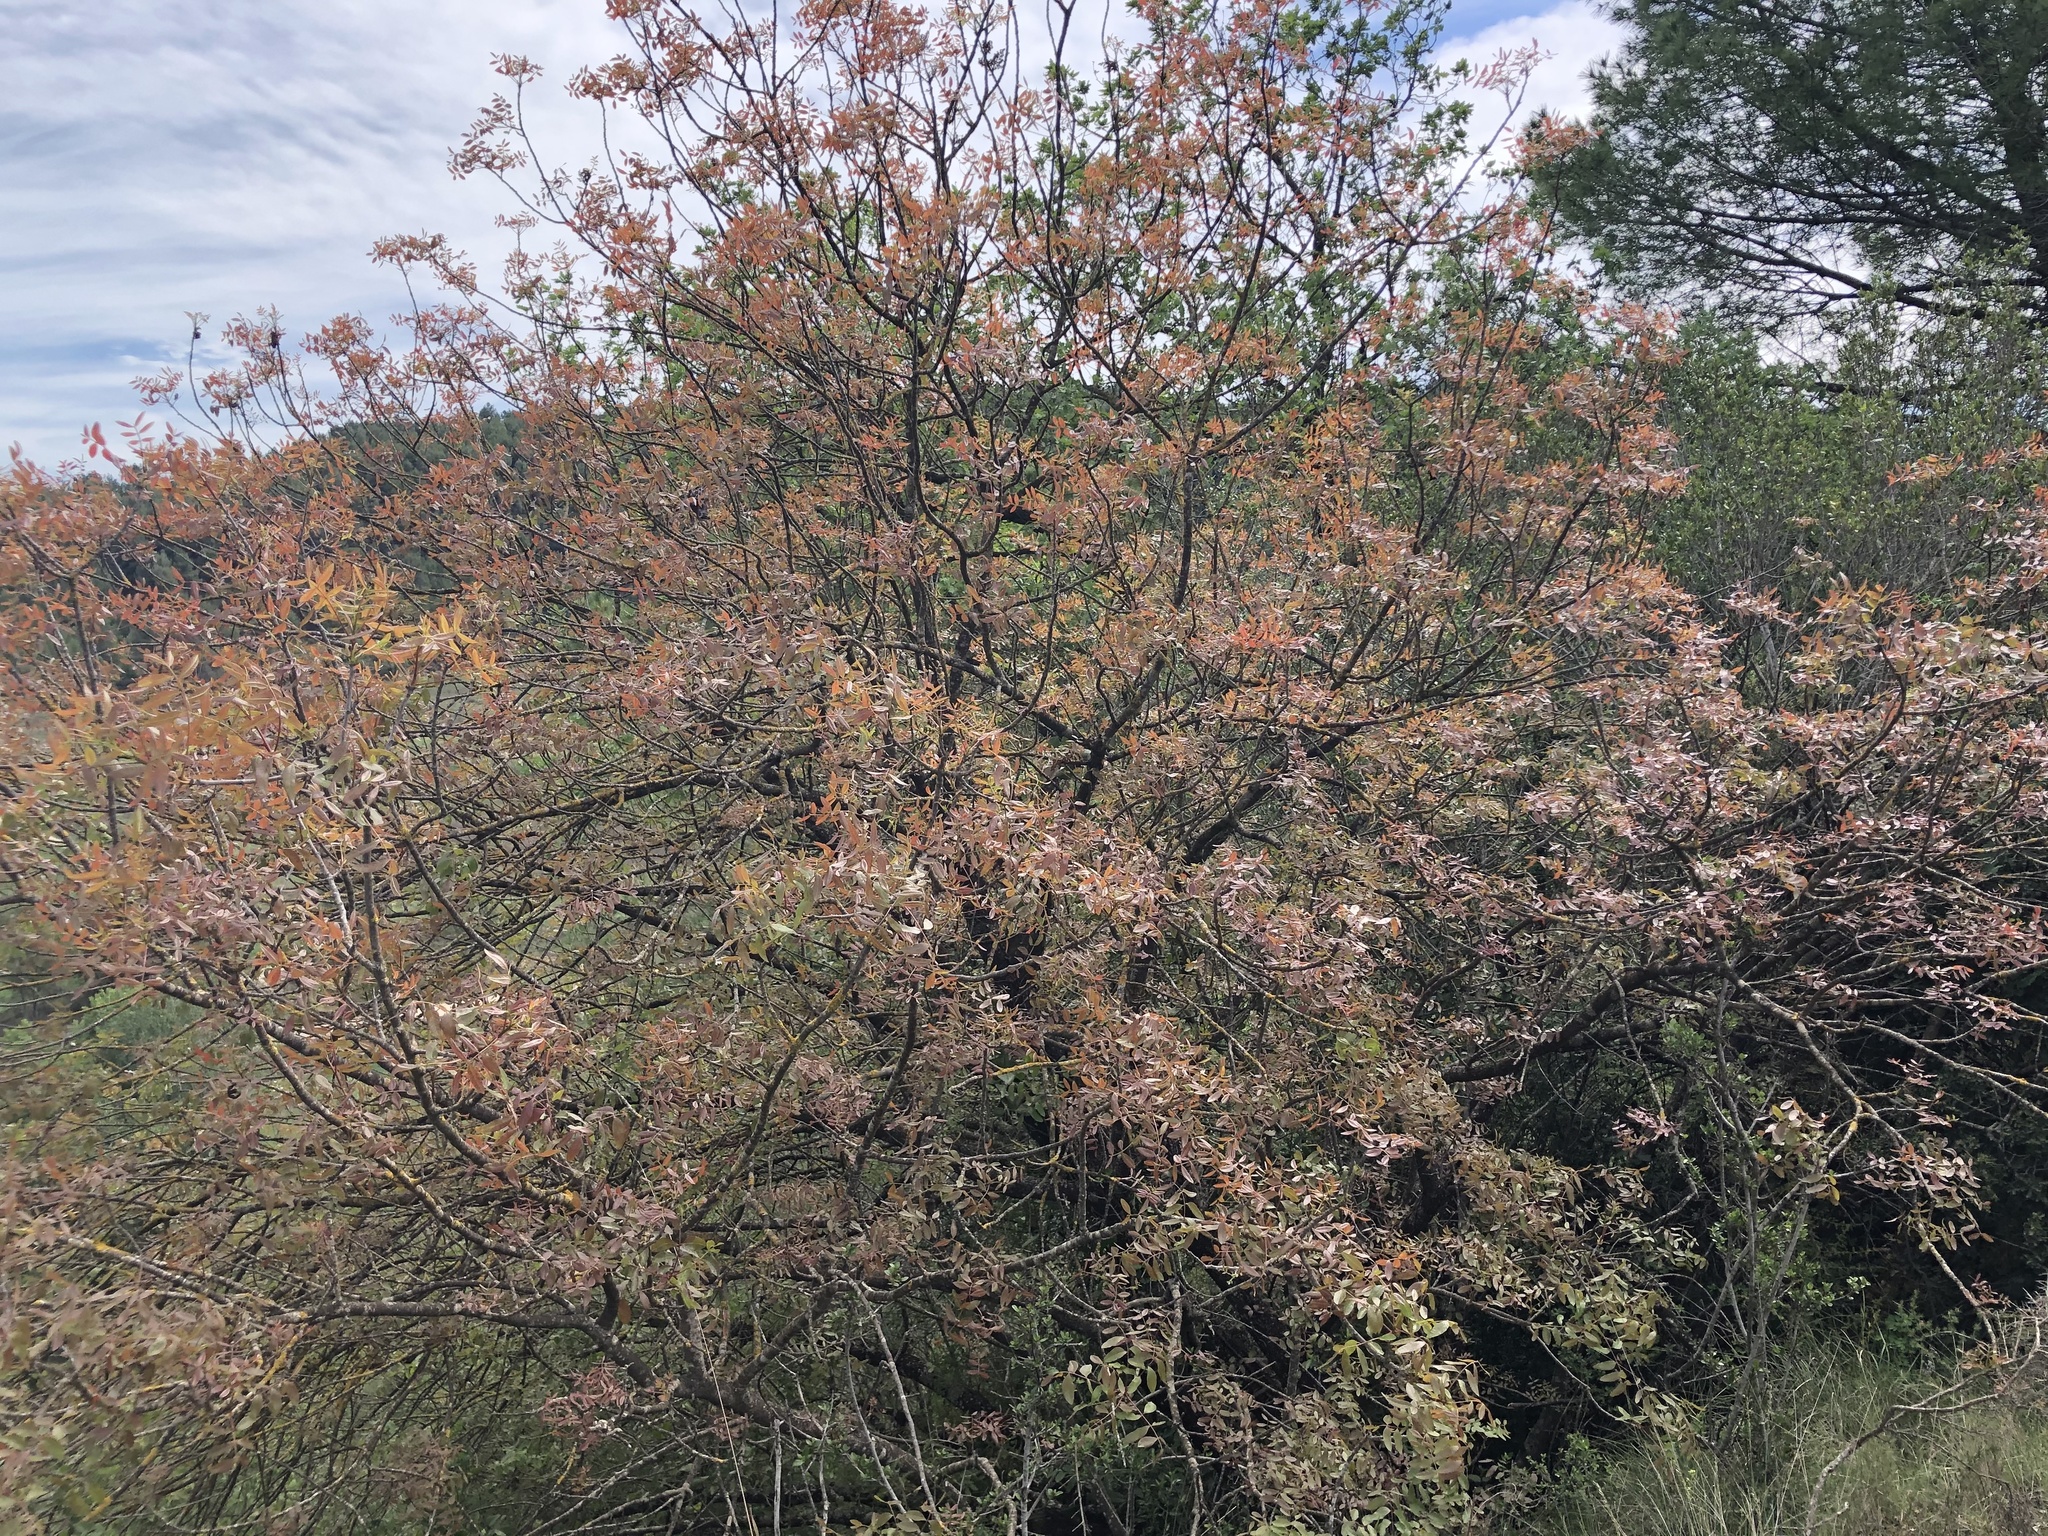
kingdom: Plantae
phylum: Tracheophyta
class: Magnoliopsida
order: Sapindales
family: Anacardiaceae
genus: Pistacia
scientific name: Pistacia terebinthus
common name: Terebinth
